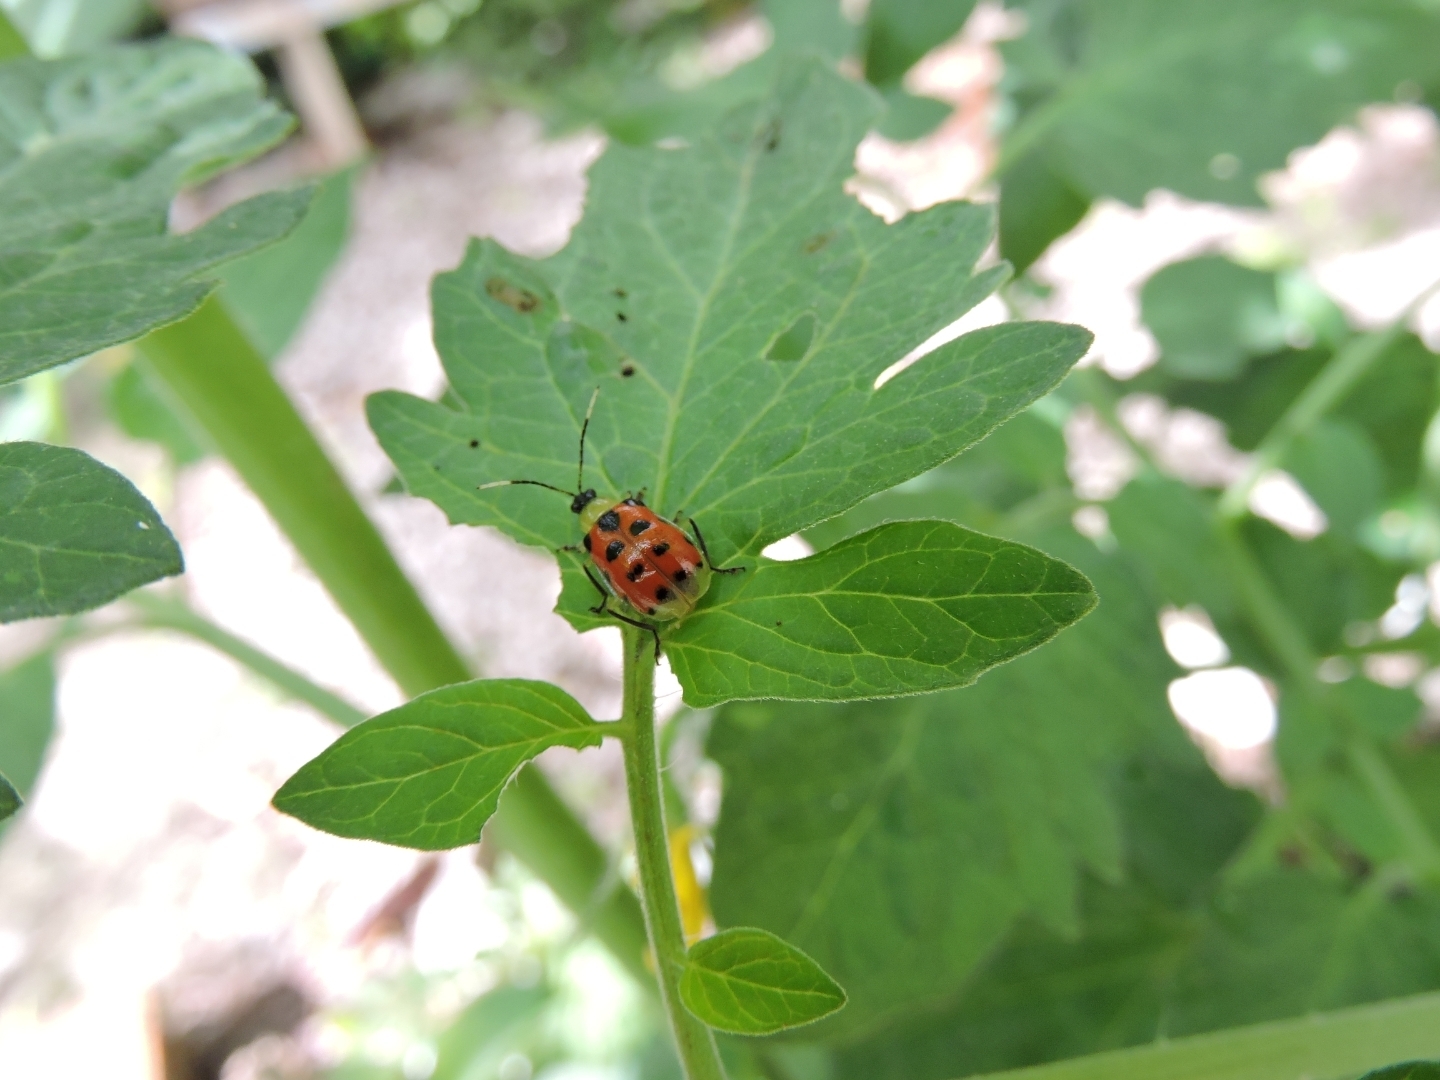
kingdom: Animalia
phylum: Arthropoda
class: Insecta
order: Coleoptera
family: Chrysomelidae
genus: Diabrotica
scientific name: Diabrotica limitata
